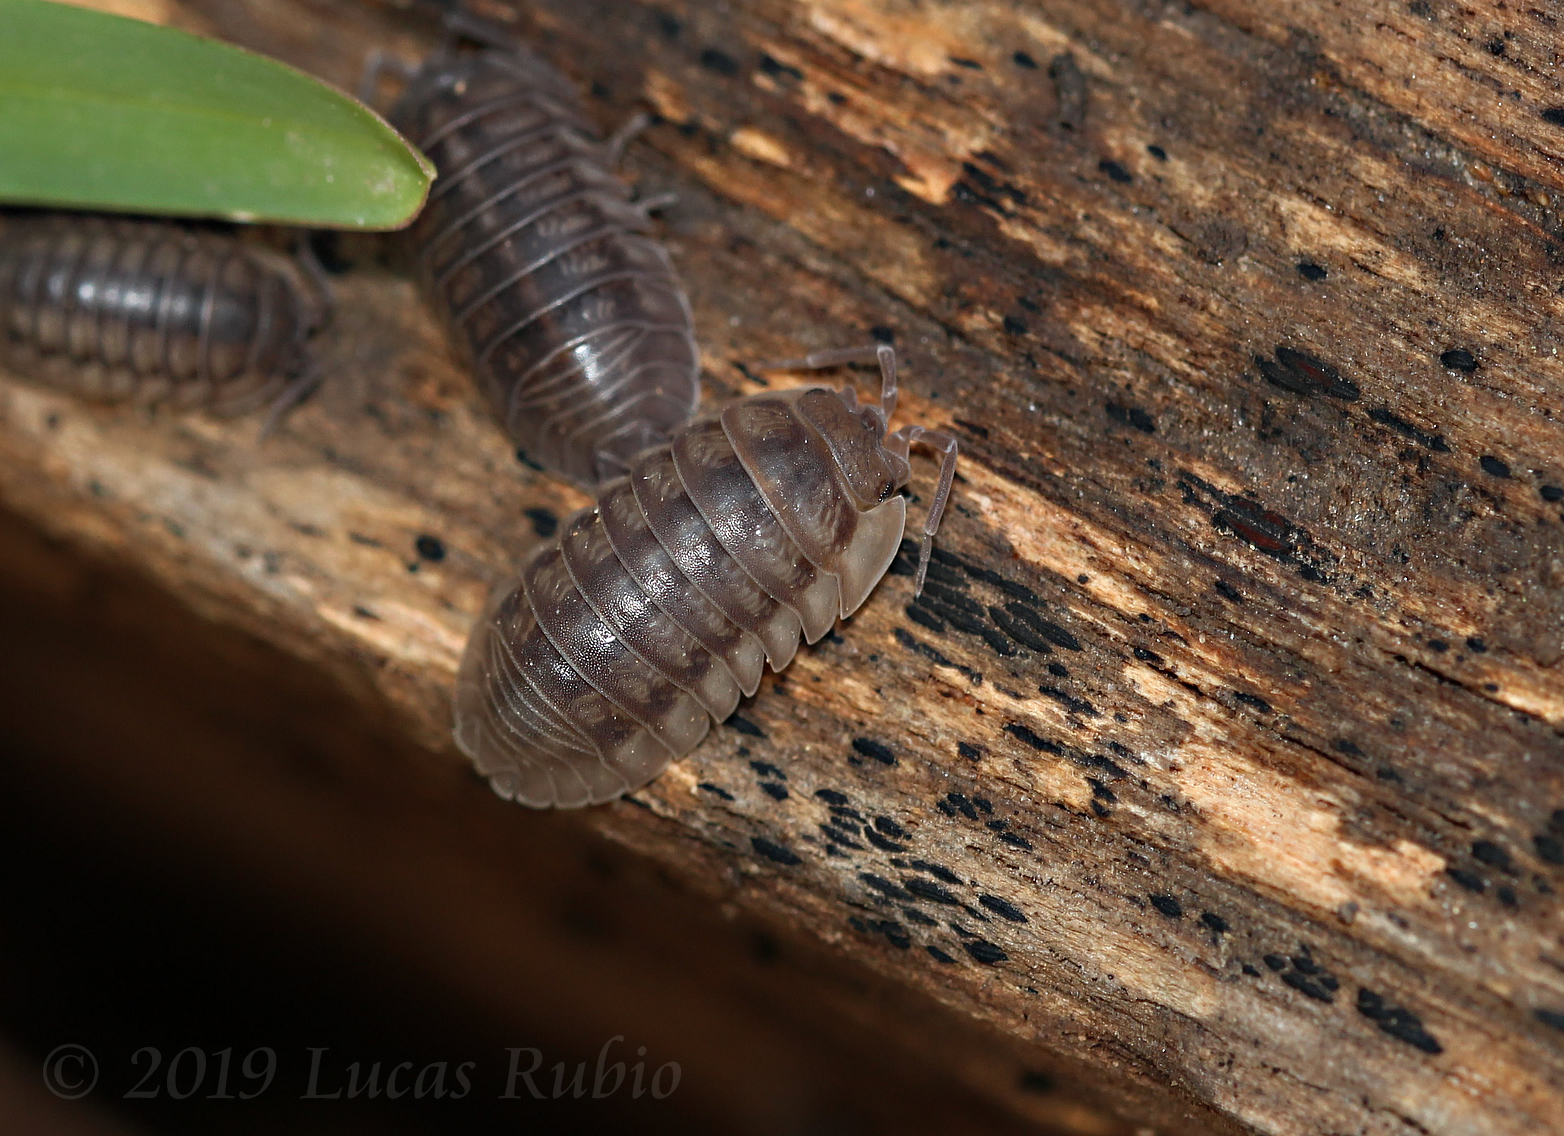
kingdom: Animalia
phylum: Arthropoda
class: Malacostraca
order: Isopoda
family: Armadillidiidae
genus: Armadillidium
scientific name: Armadillidium nasatum
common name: Isopod
